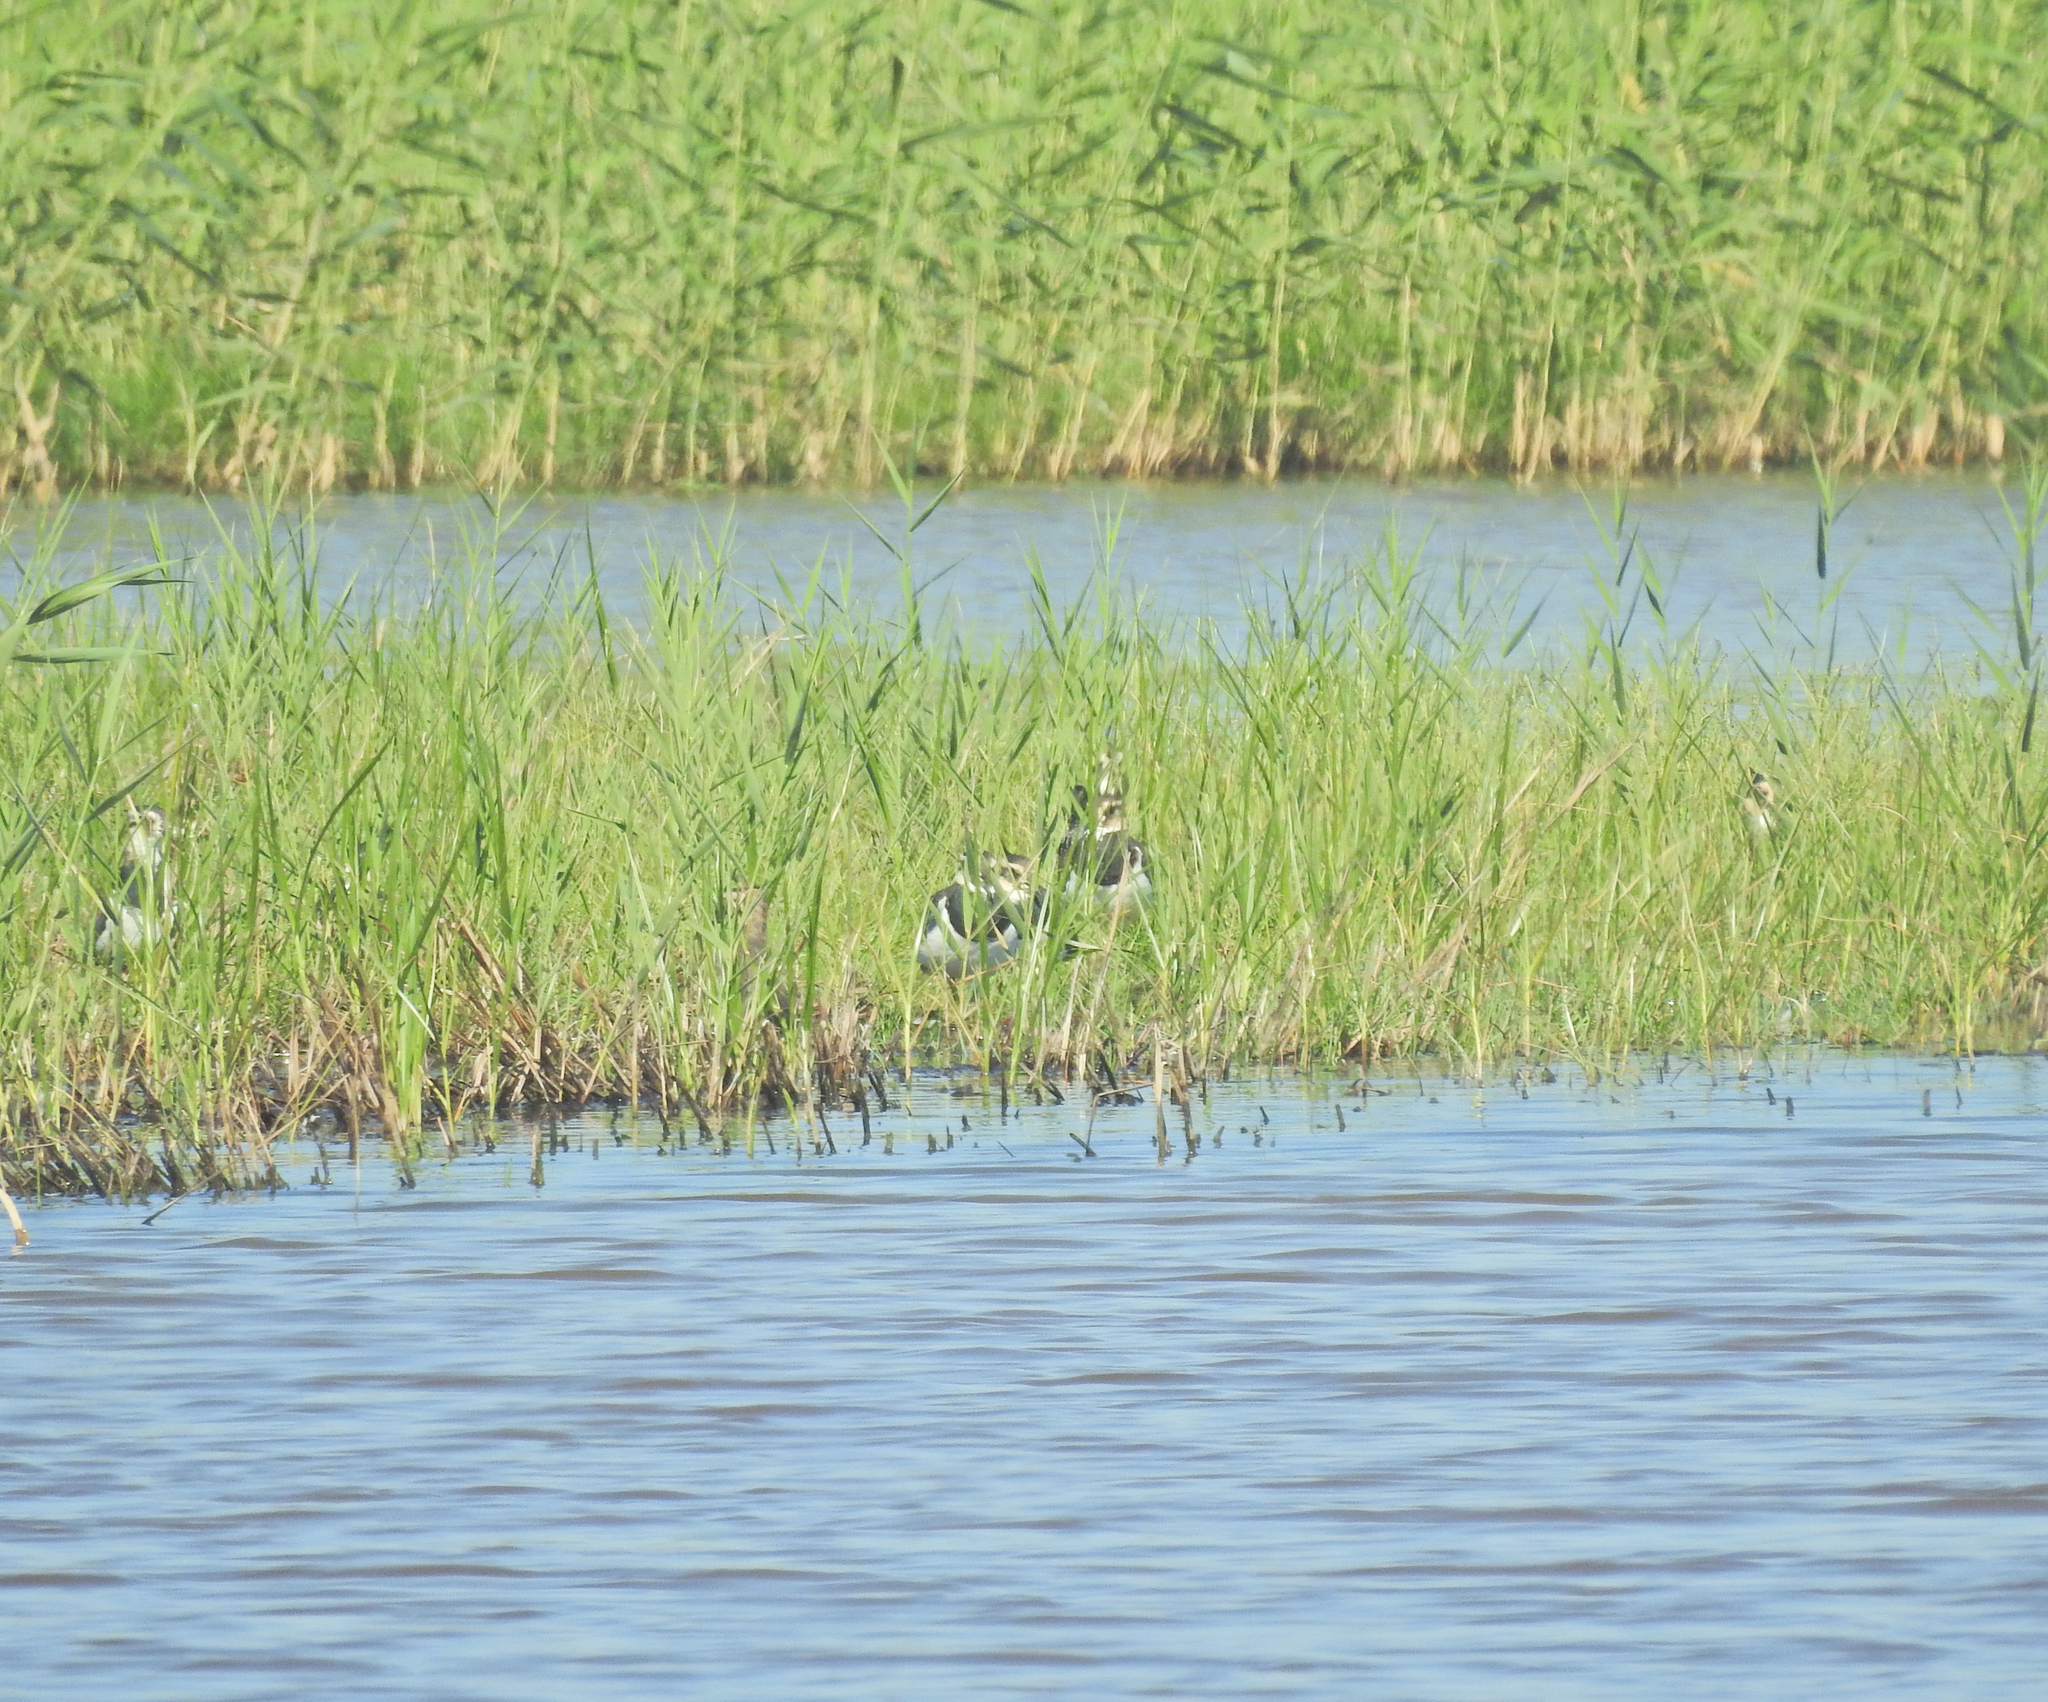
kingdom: Animalia
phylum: Chordata
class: Aves
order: Charadriiformes
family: Charadriidae
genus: Vanellus
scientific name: Vanellus vanellus
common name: Northern lapwing
